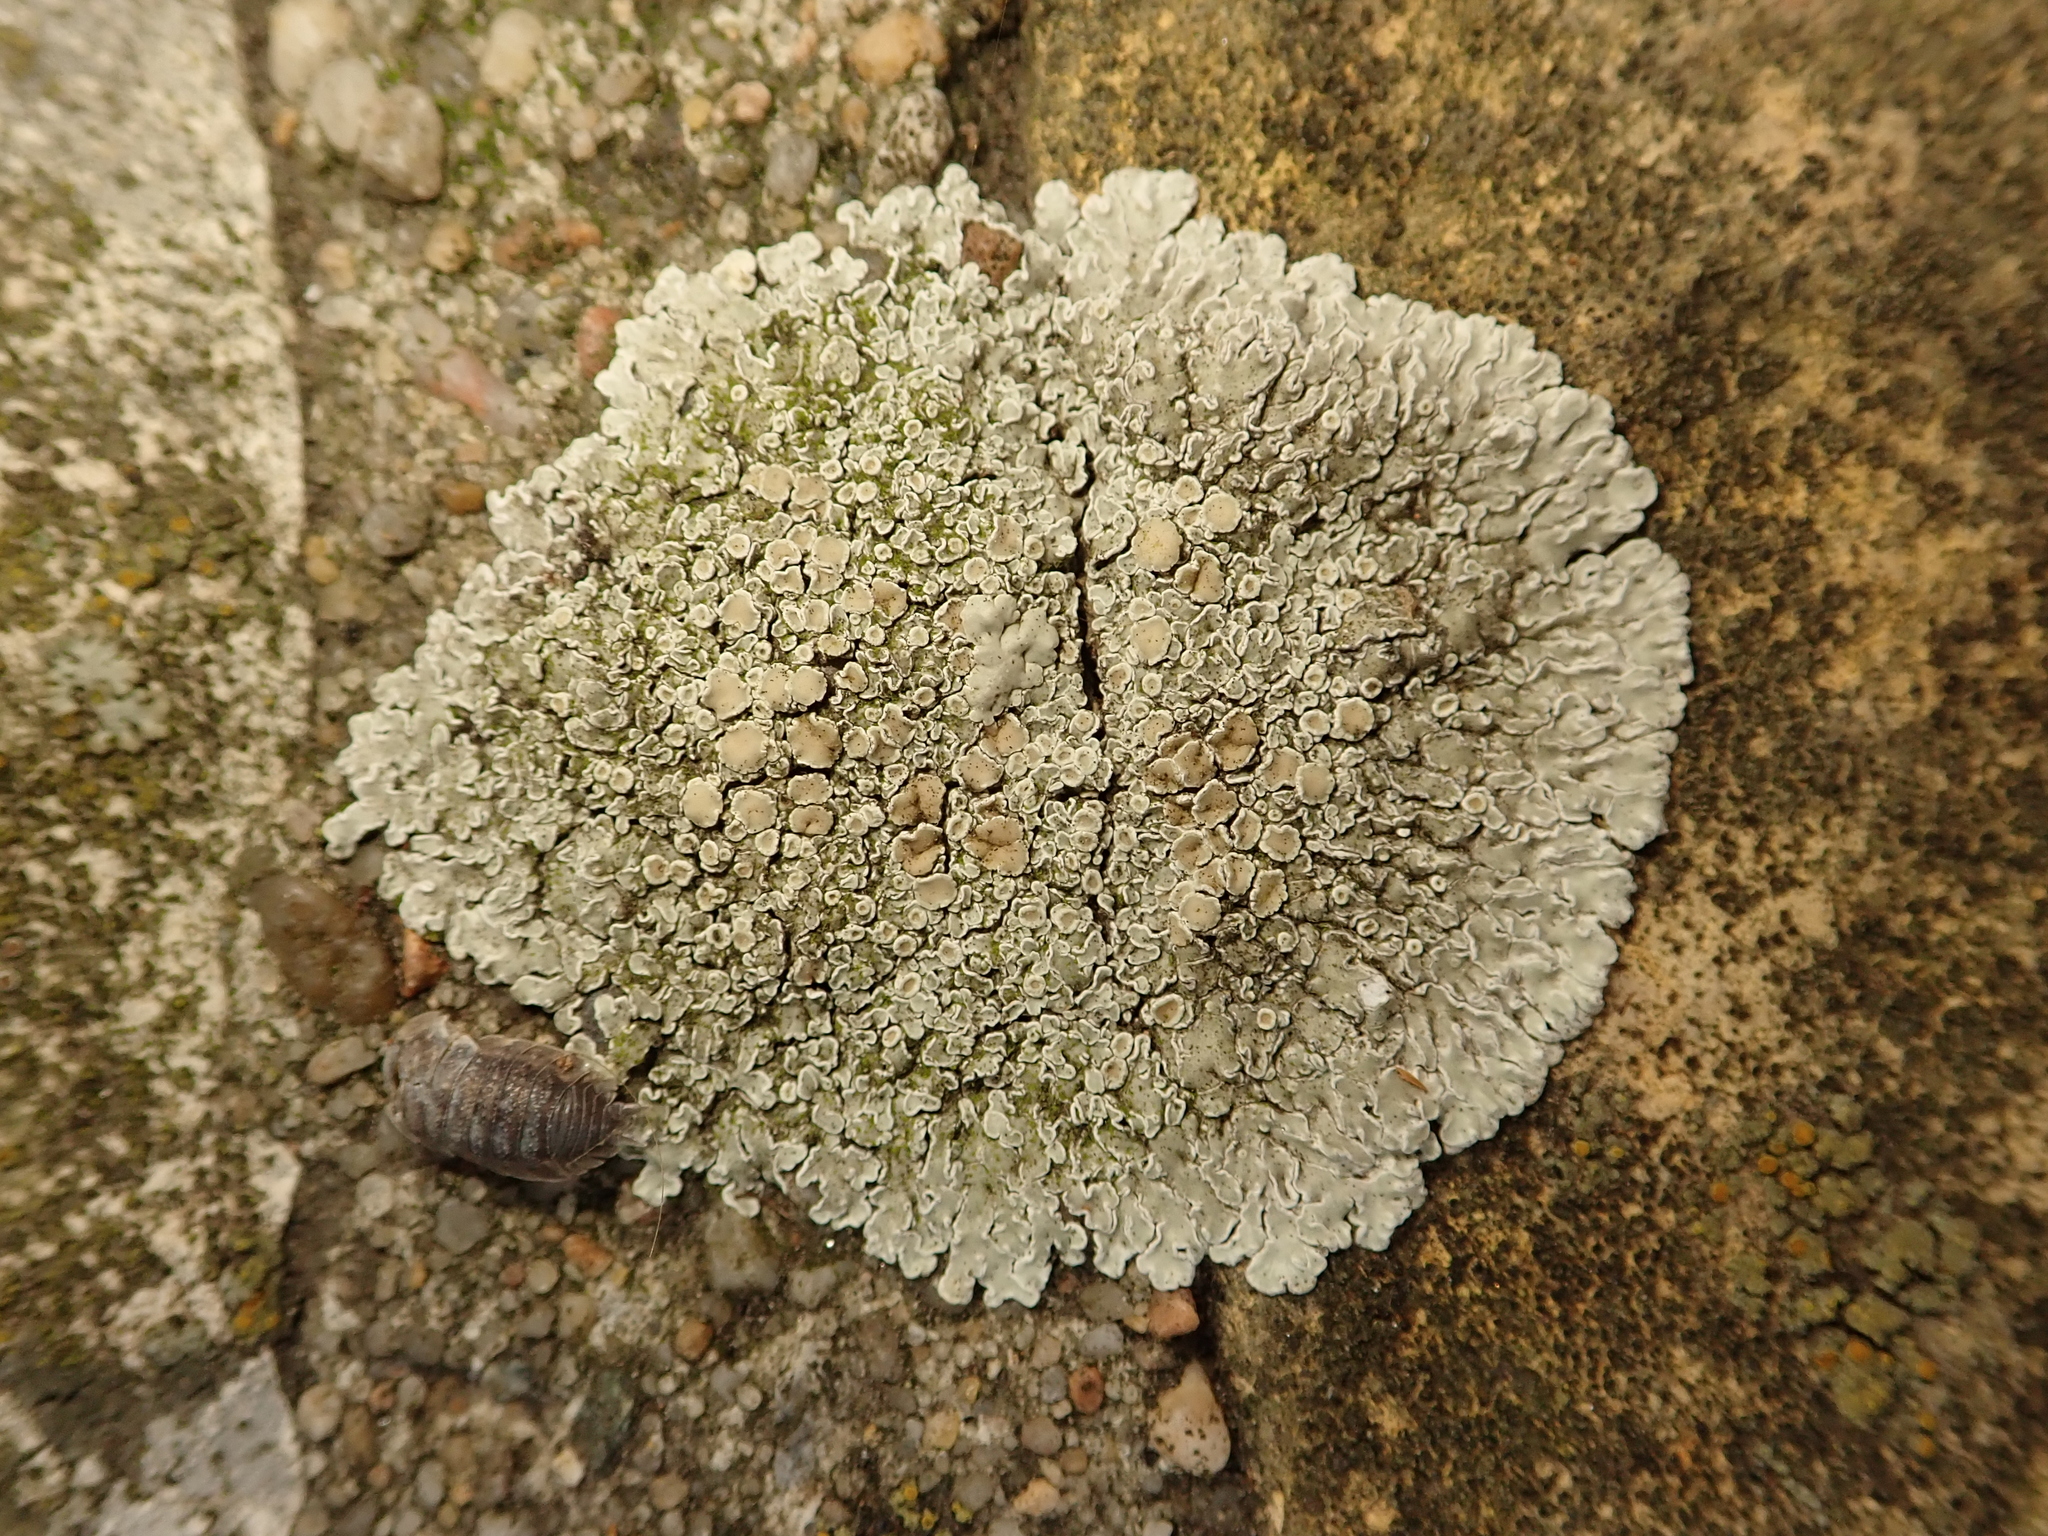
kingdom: Fungi
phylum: Ascomycota
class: Lecanoromycetes
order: Lecanorales
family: Lecanoraceae
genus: Protoparmeliopsis
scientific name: Protoparmeliopsis muralis
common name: Stonewall rim lichen
